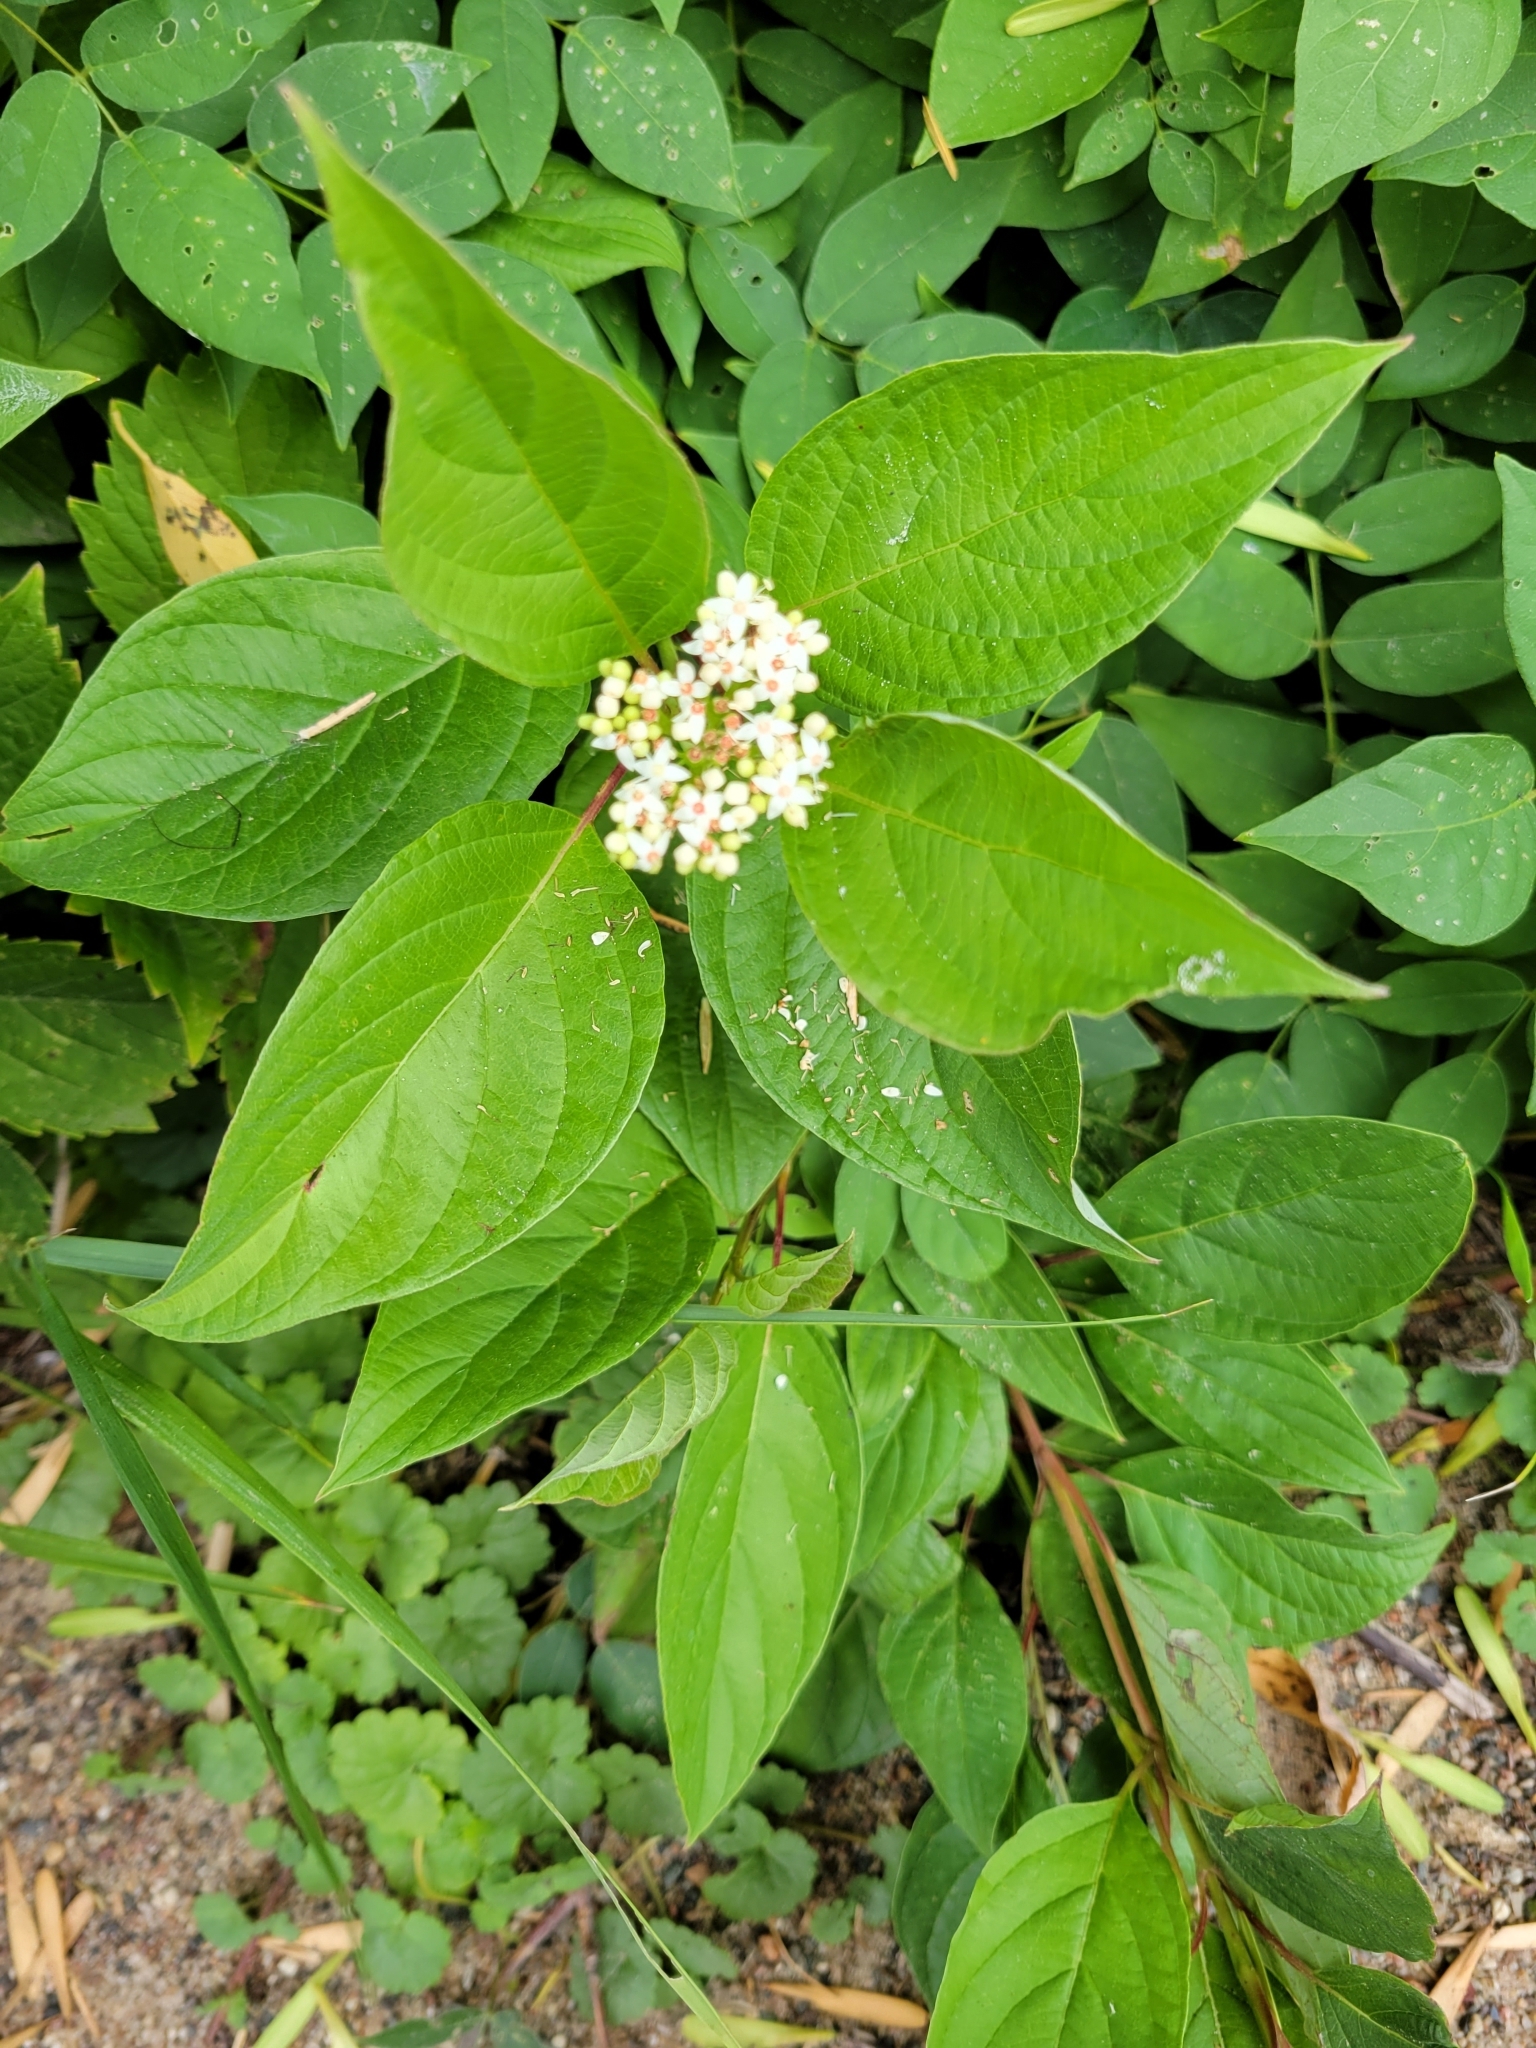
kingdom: Plantae
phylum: Tracheophyta
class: Magnoliopsida
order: Cornales
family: Cornaceae
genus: Cornus
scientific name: Cornus sericea
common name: Red-osier dogwood
